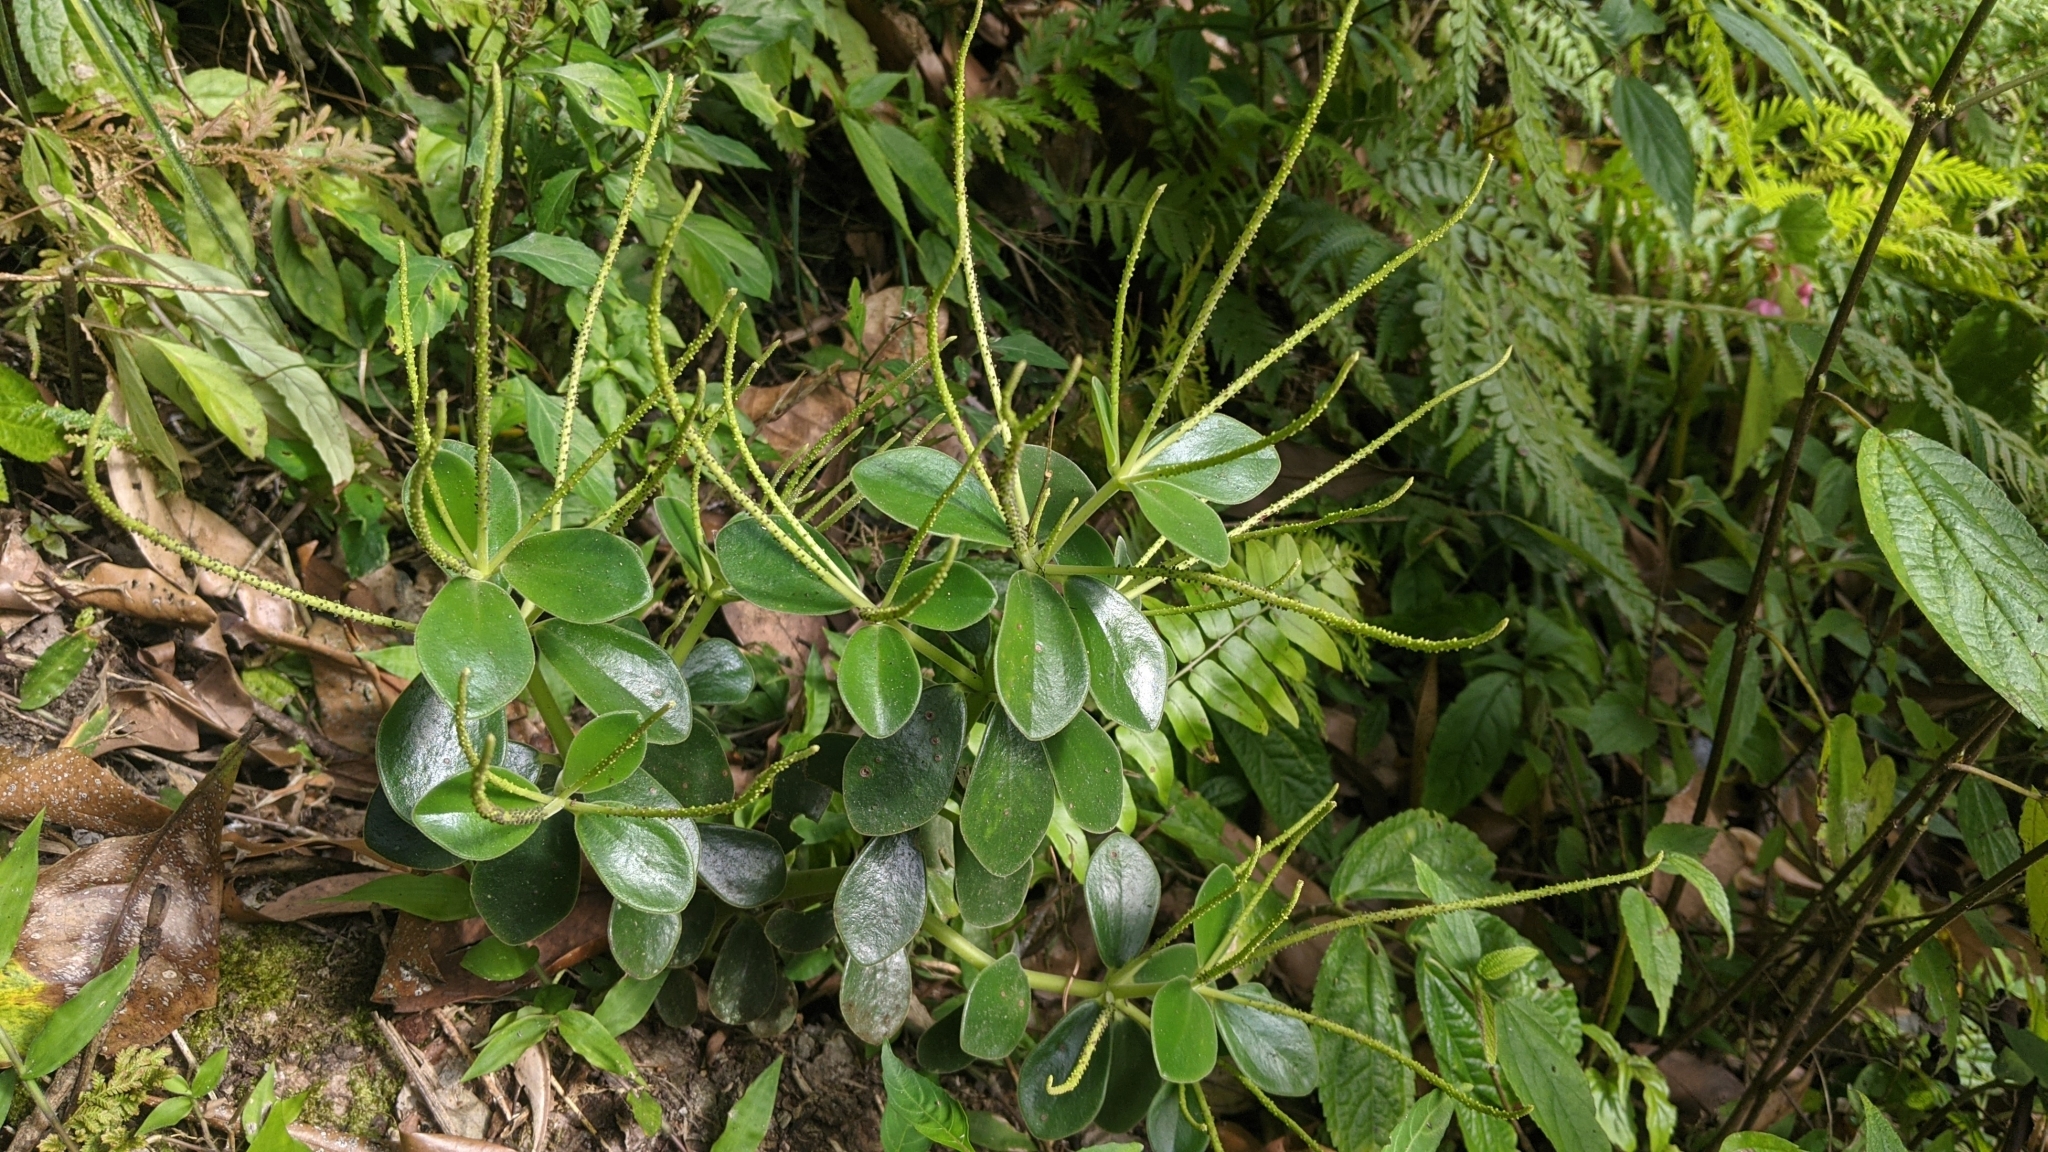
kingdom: Plantae
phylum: Tracheophyta
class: Magnoliopsida
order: Piperales
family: Piperaceae
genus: Peperomia
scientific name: Peperomia japonica
